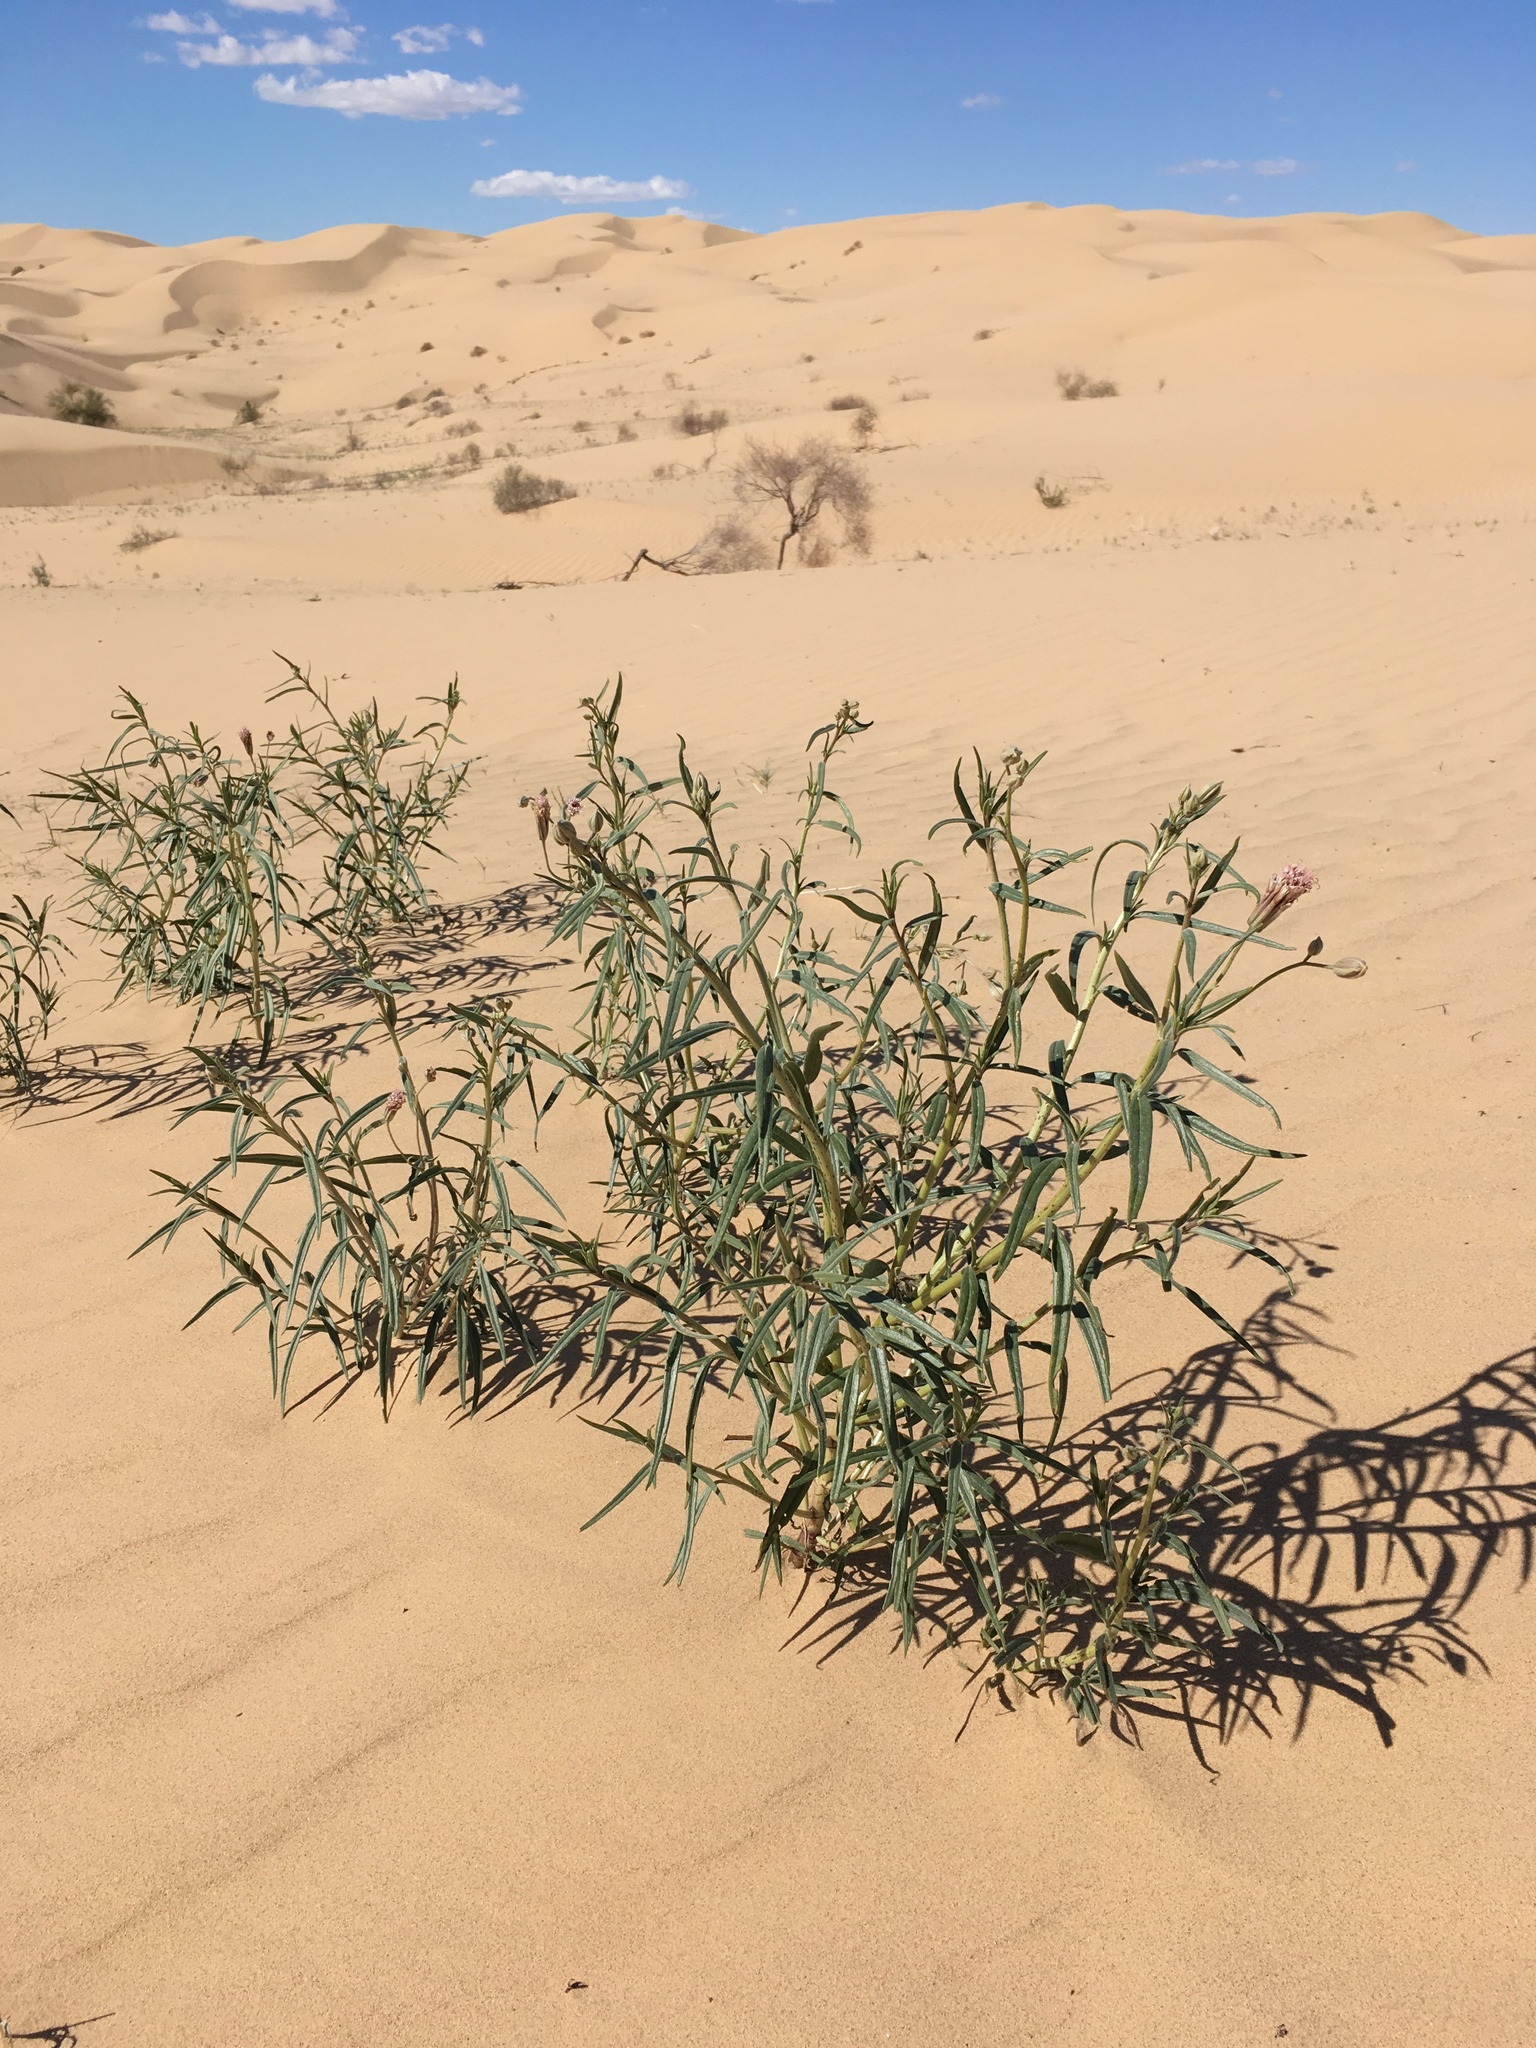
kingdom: Plantae
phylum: Tracheophyta
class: Magnoliopsida
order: Asterales
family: Asteraceae
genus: Palafoxia
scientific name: Palafoxia arida
